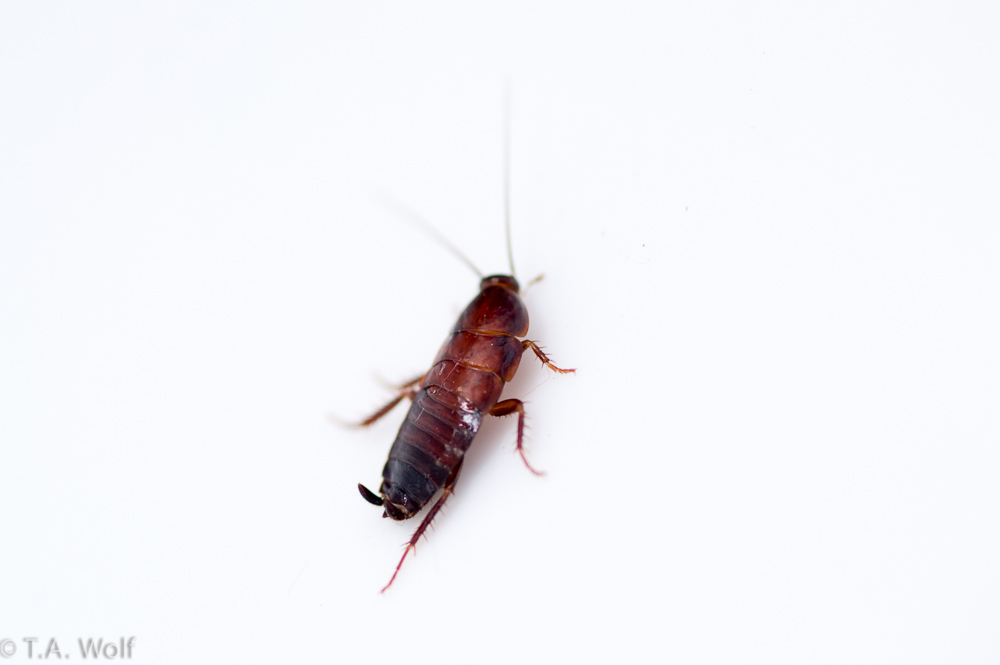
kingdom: Animalia
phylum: Arthropoda
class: Insecta
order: Blattodea
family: Ectobiidae
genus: Parcoblatta
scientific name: Parcoblatta americana
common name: Western wood cockroach
